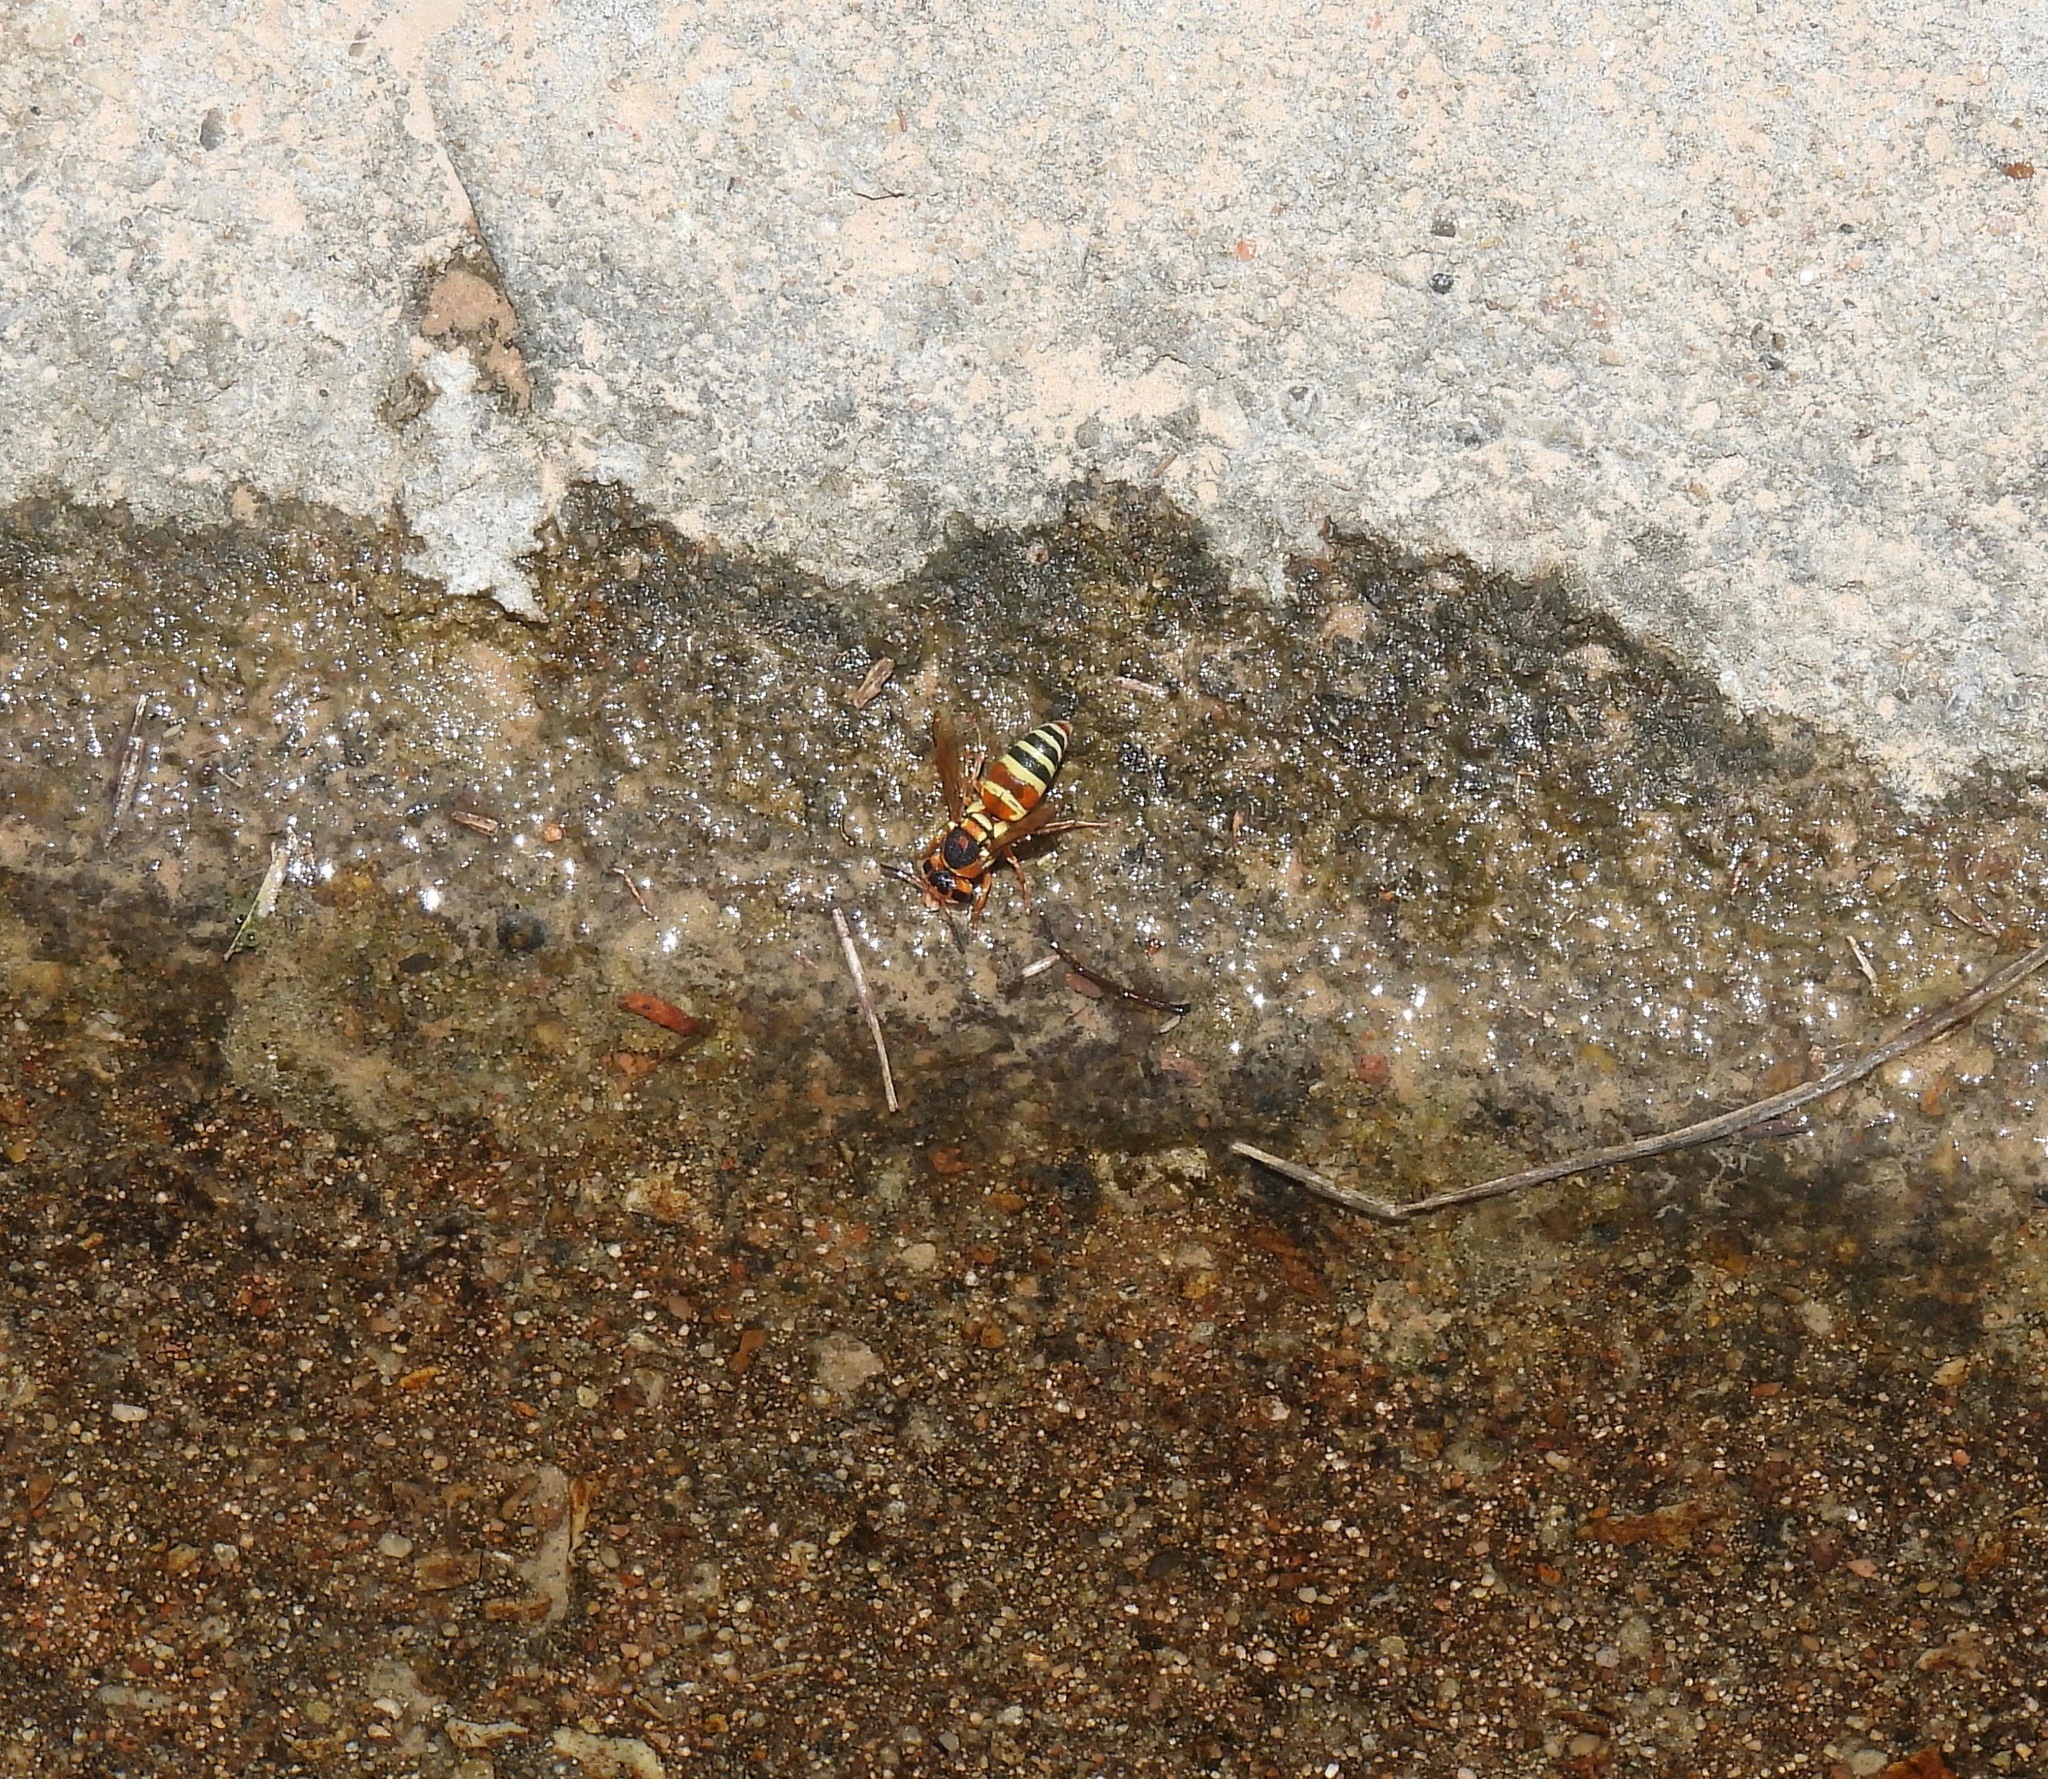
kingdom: Animalia
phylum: Arthropoda
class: Insecta
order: Hymenoptera
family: Eumenidae
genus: Euodynerus
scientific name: Euodynerus annulatus
